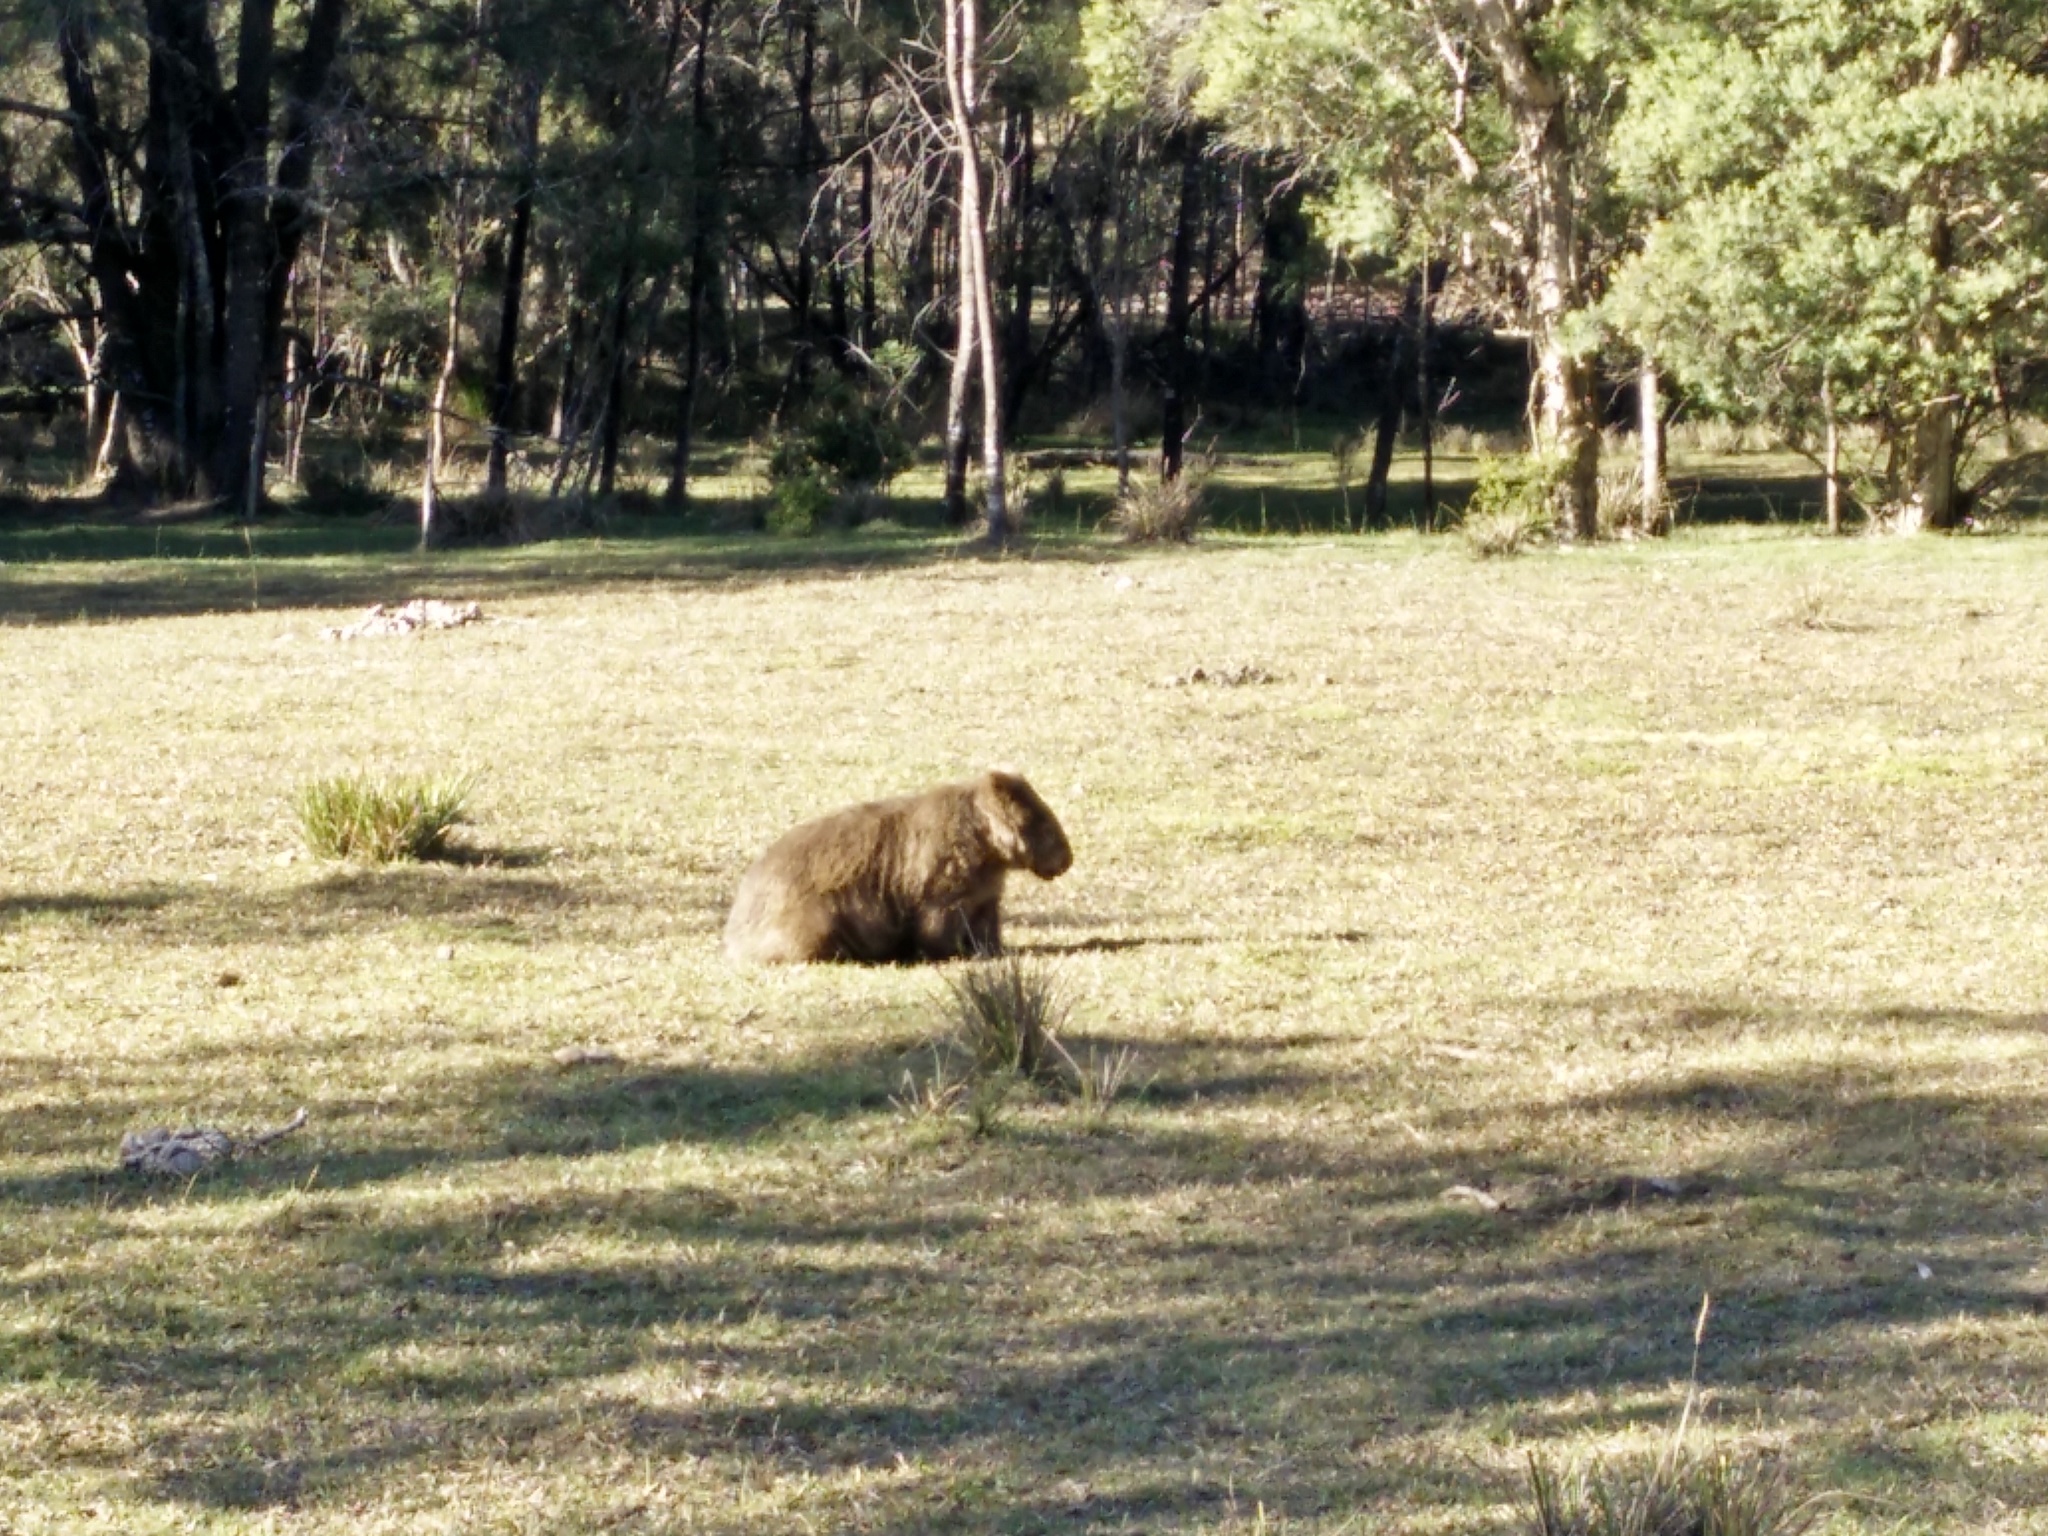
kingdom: Animalia
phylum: Chordata
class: Mammalia
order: Diprotodontia
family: Vombatidae
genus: Vombatus
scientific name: Vombatus ursinus
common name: Common wombat
